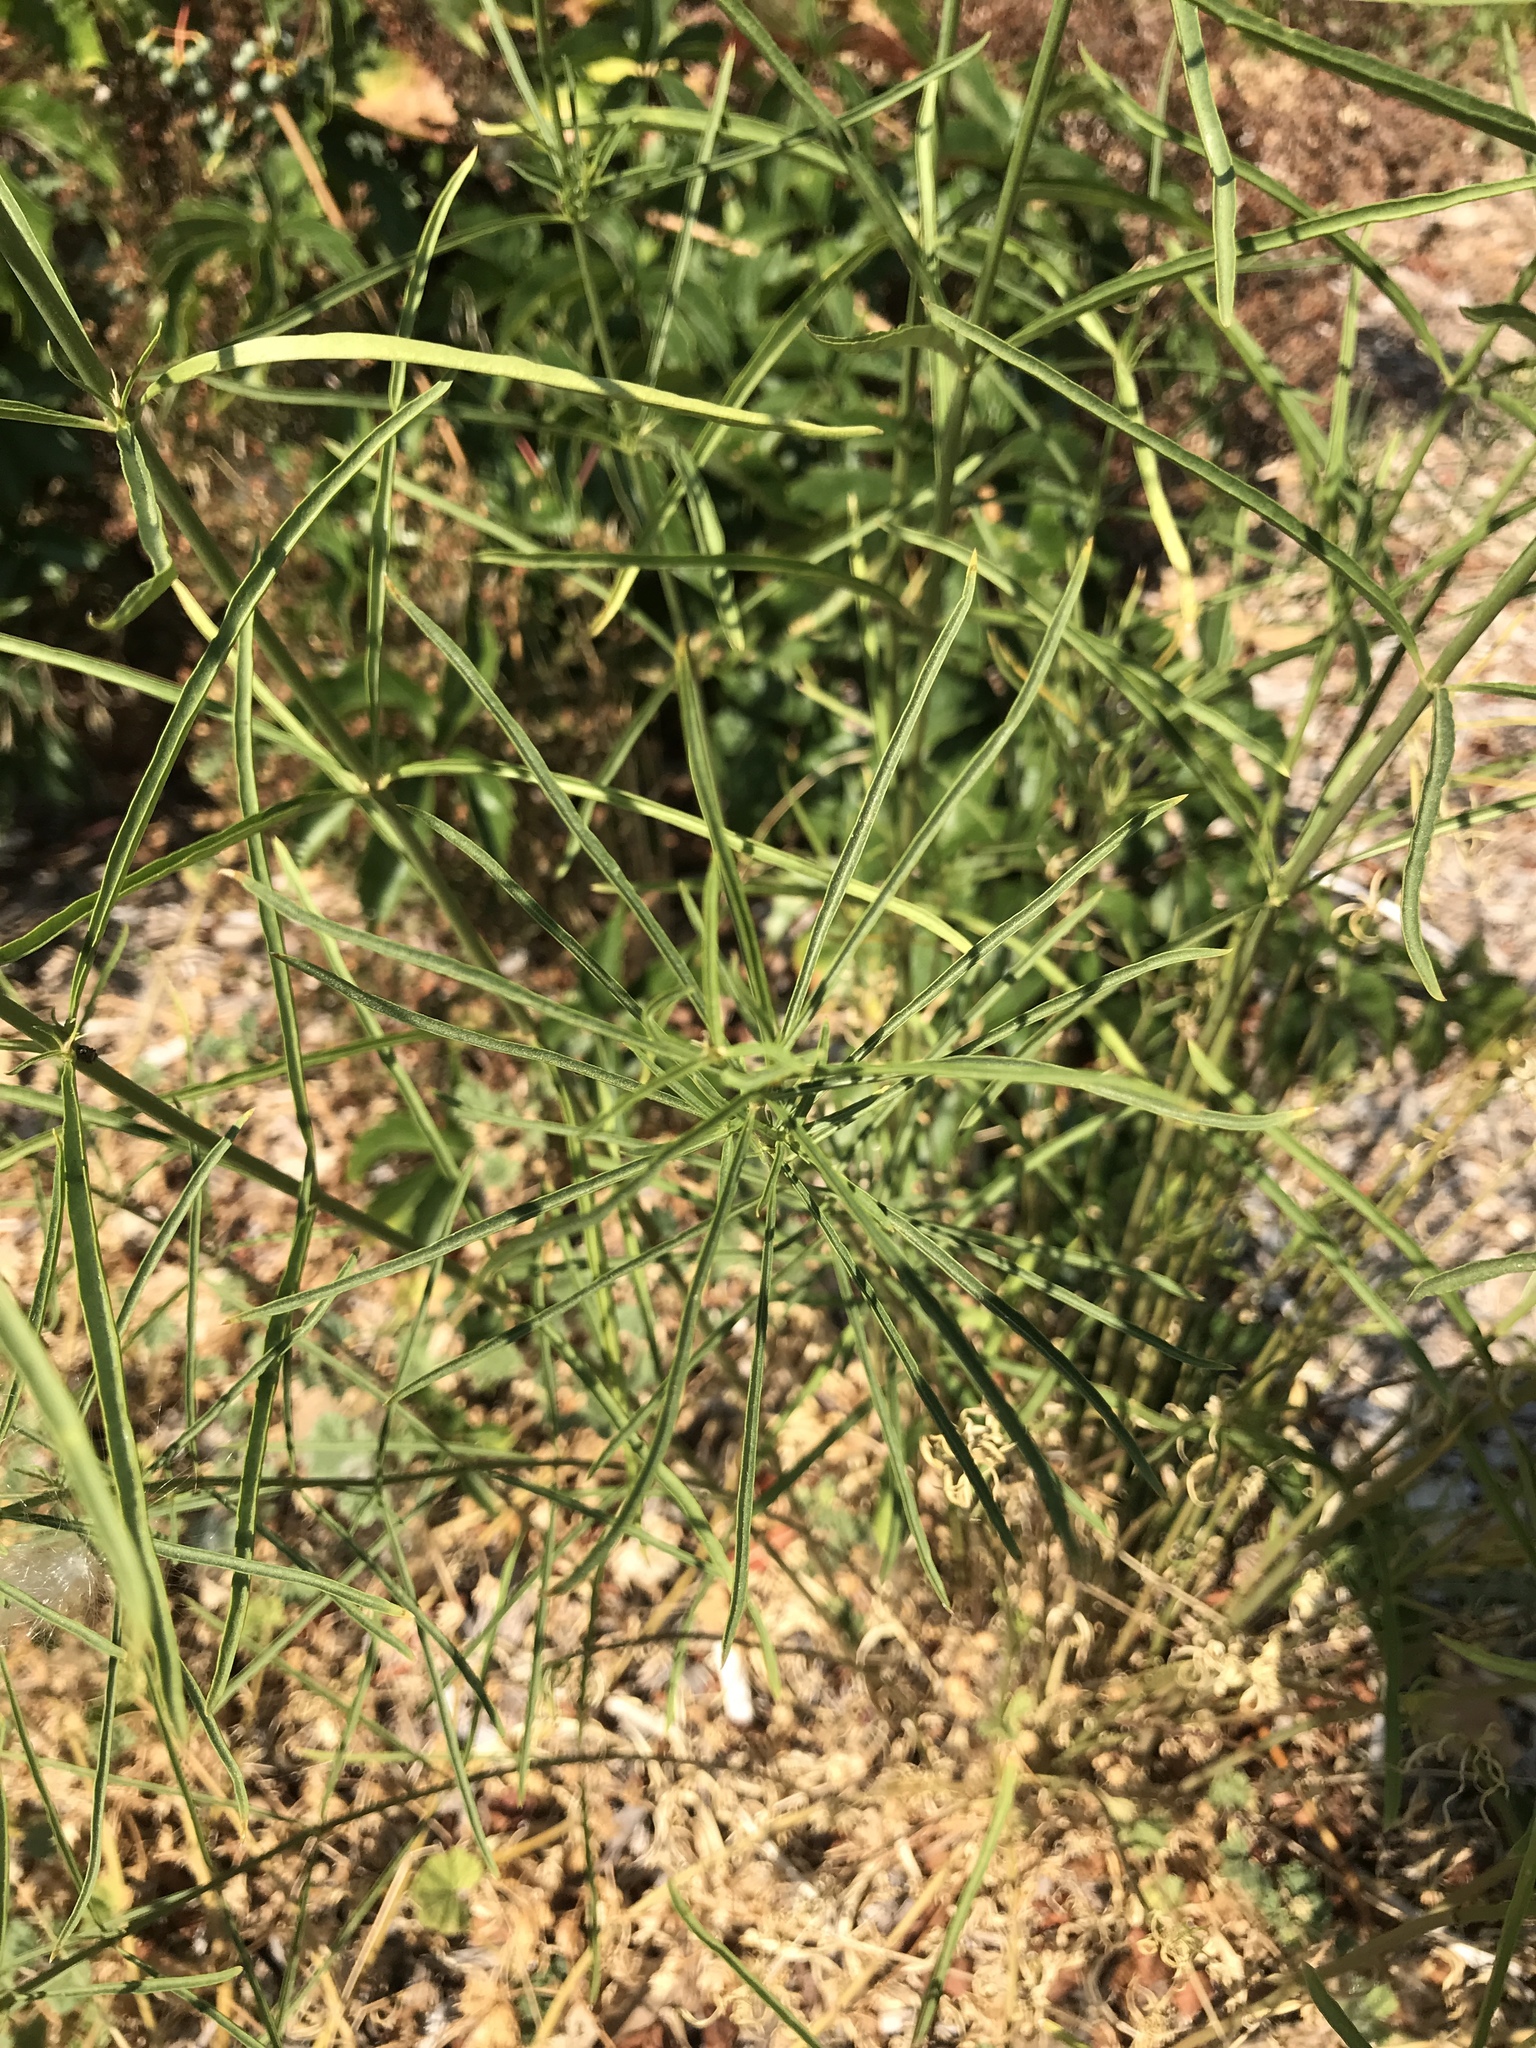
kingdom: Plantae
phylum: Tracheophyta
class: Magnoliopsida
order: Gentianales
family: Apocynaceae
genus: Asclepias
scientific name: Asclepias fascicularis
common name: Mexican milkweed
